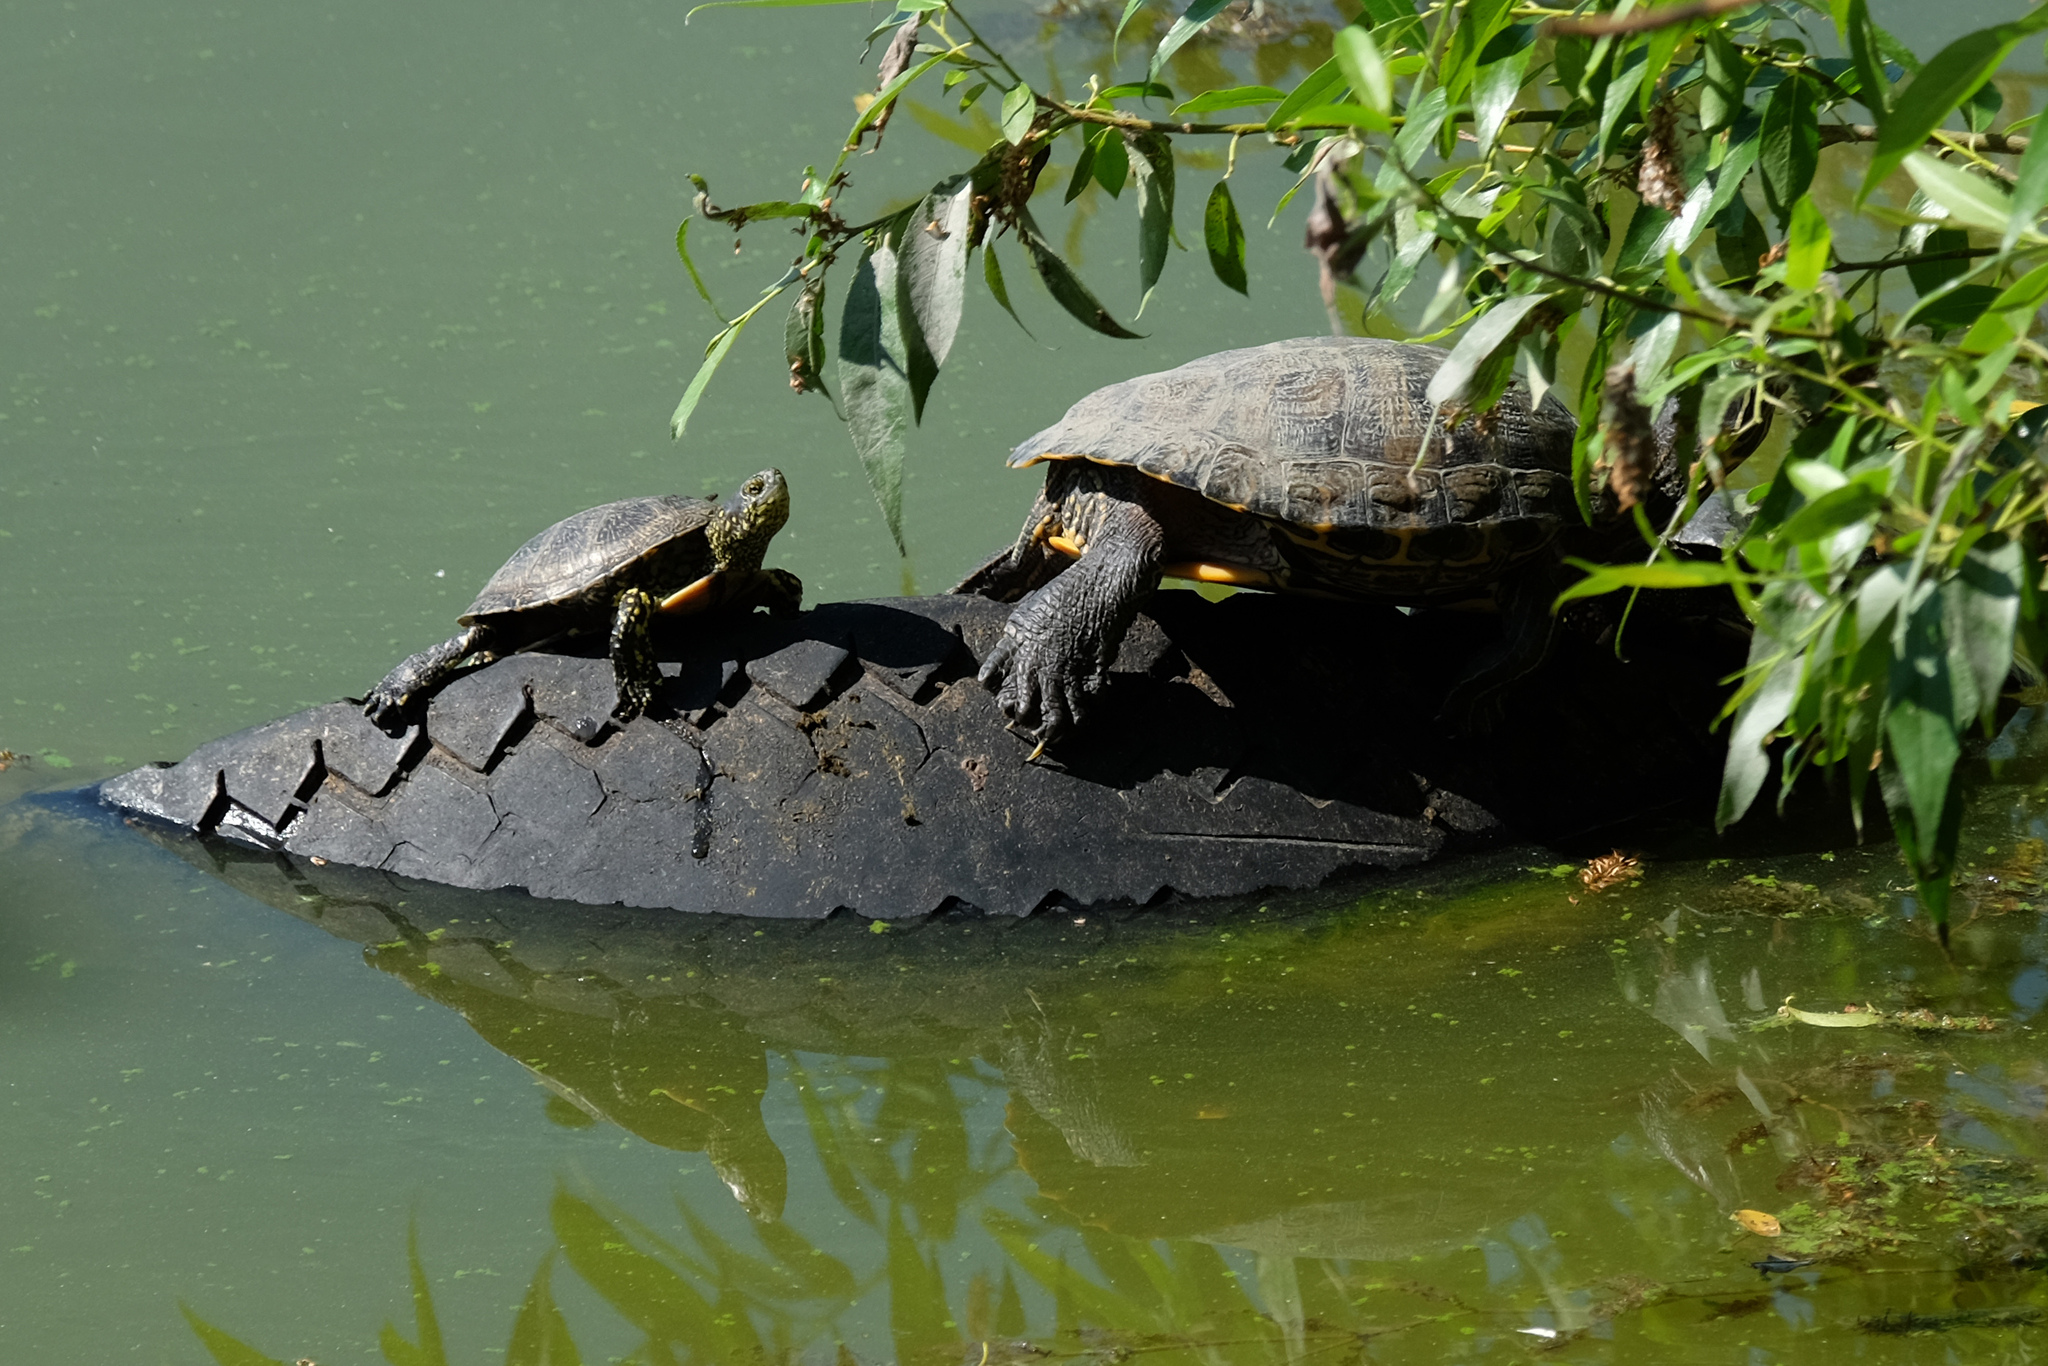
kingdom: Animalia
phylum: Chordata
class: Testudines
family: Emydidae
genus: Emys
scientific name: Emys orbicularis
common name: European pond turtle
